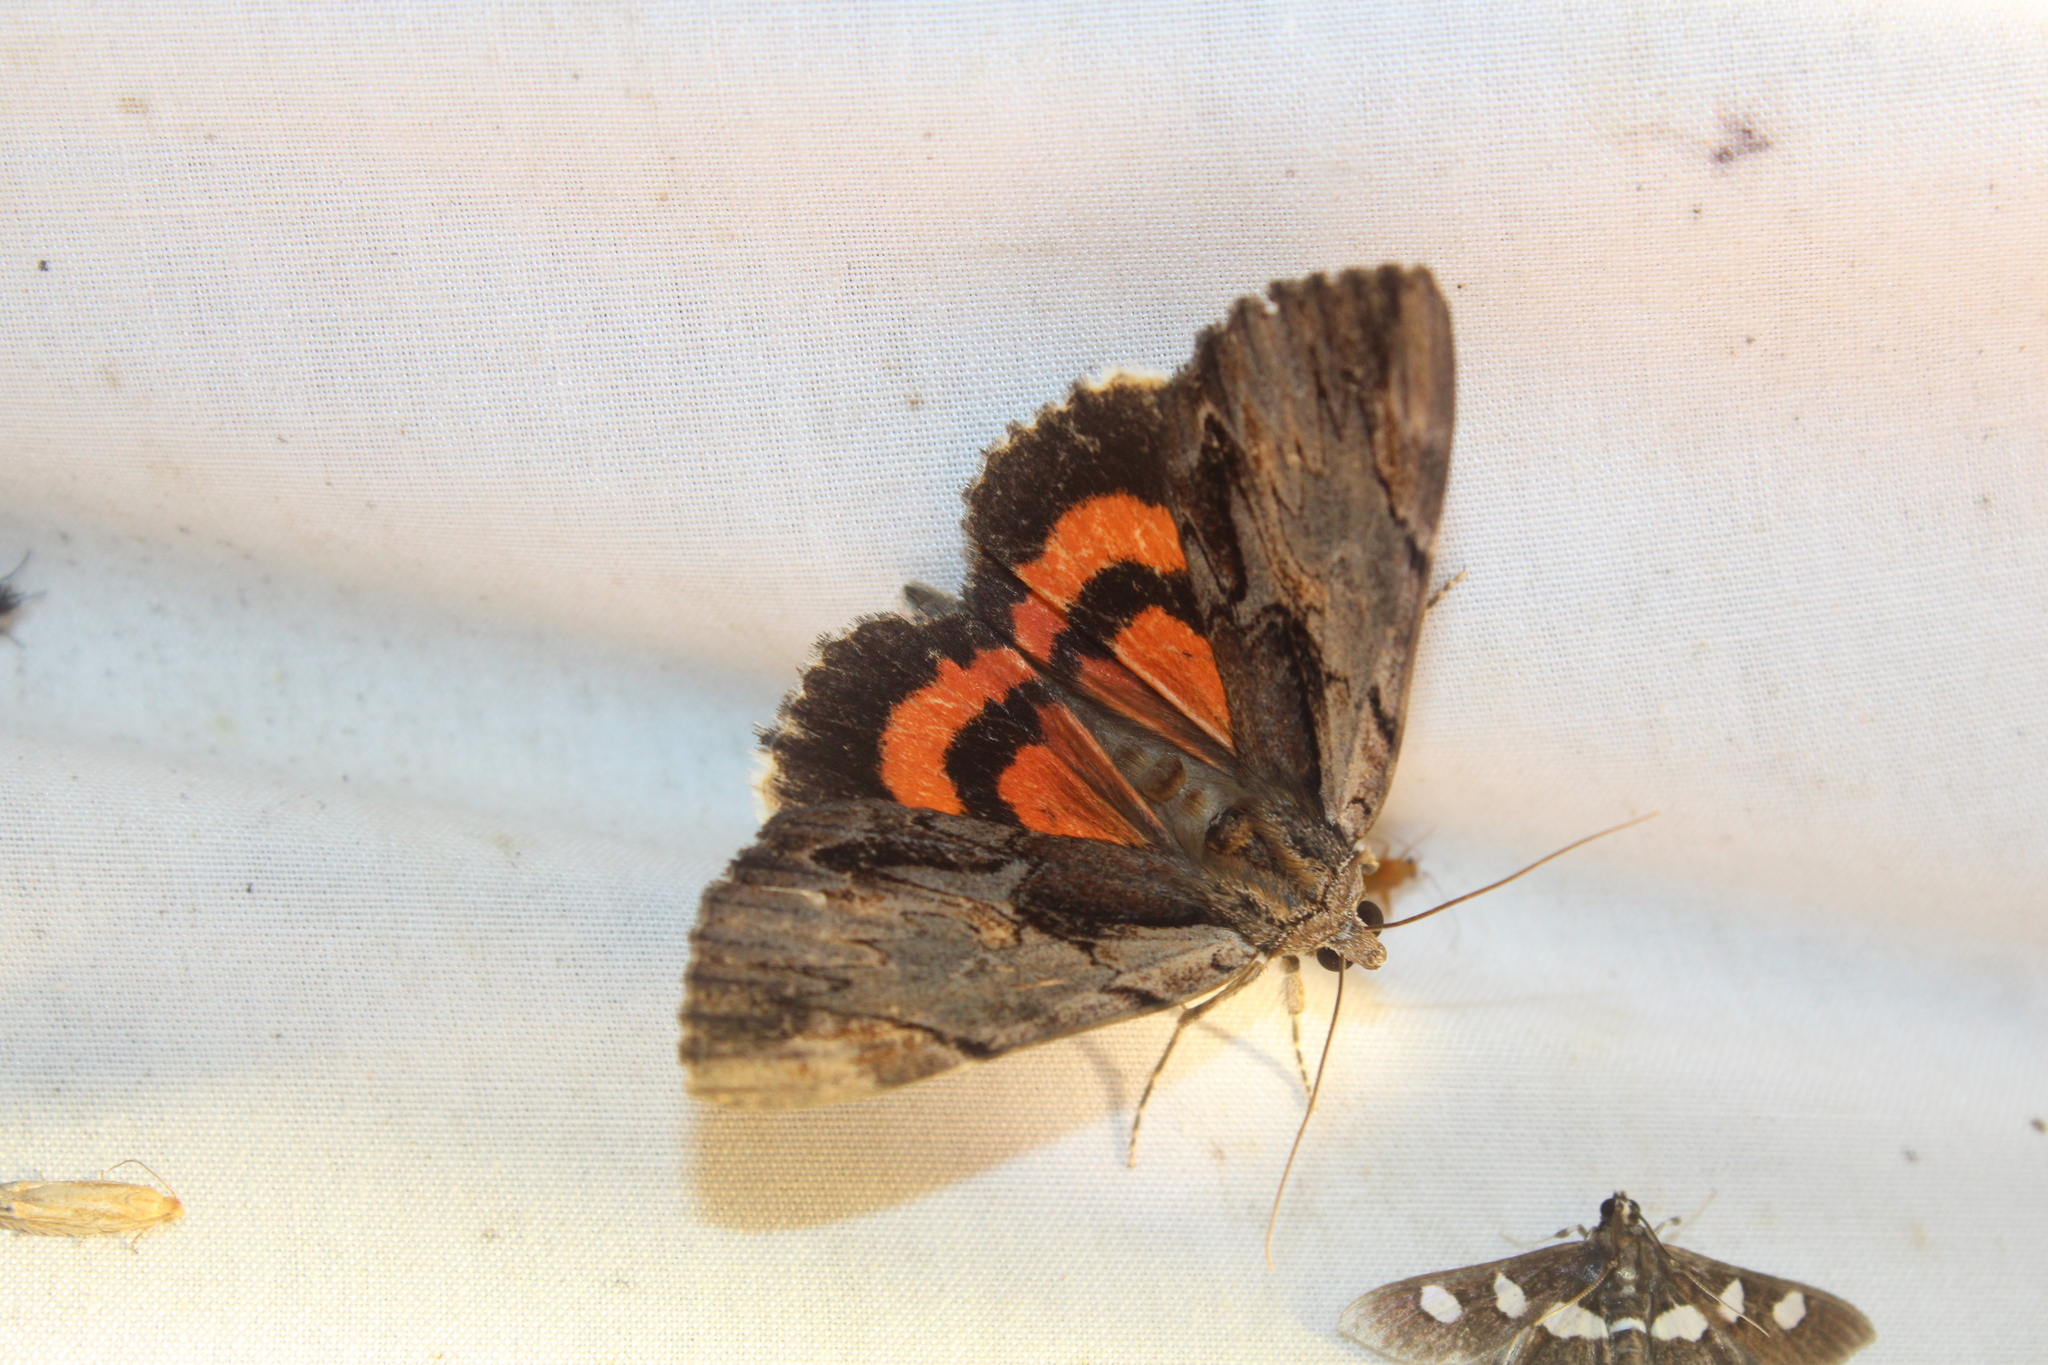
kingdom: Animalia
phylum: Arthropoda
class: Insecta
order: Lepidoptera
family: Erebidae
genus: Catocala
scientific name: Catocala ultronia
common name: Ultronia underwing
